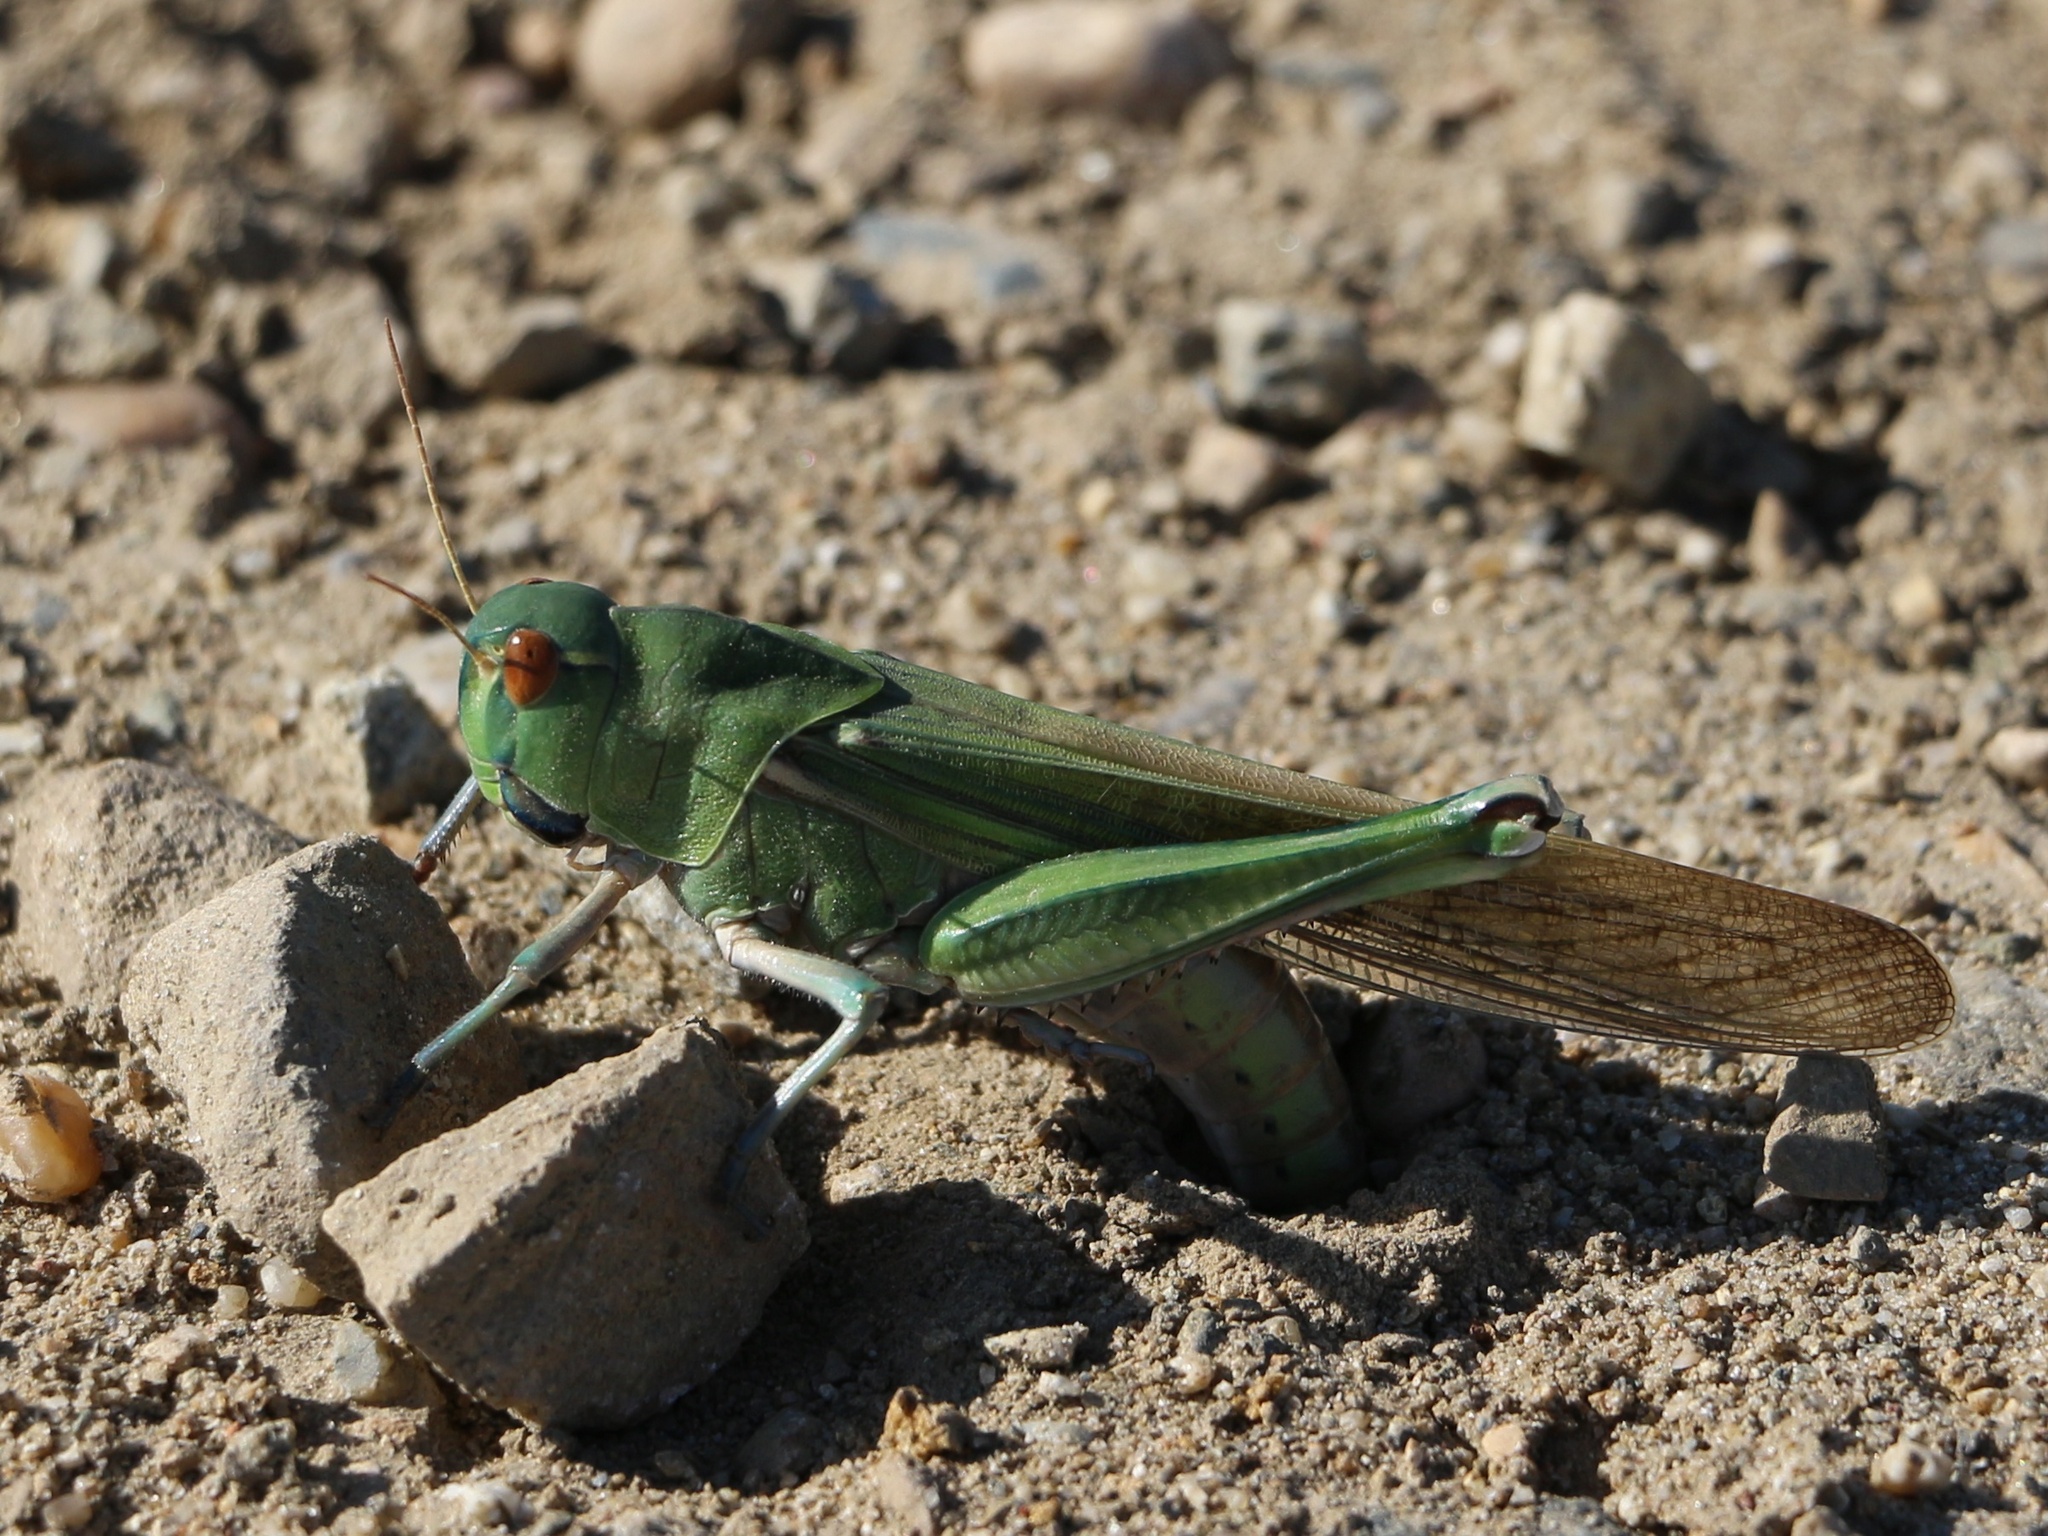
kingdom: Animalia
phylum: Arthropoda
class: Insecta
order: Orthoptera
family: Acrididae
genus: Locusta
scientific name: Locusta migratoria
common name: Migratory locust
